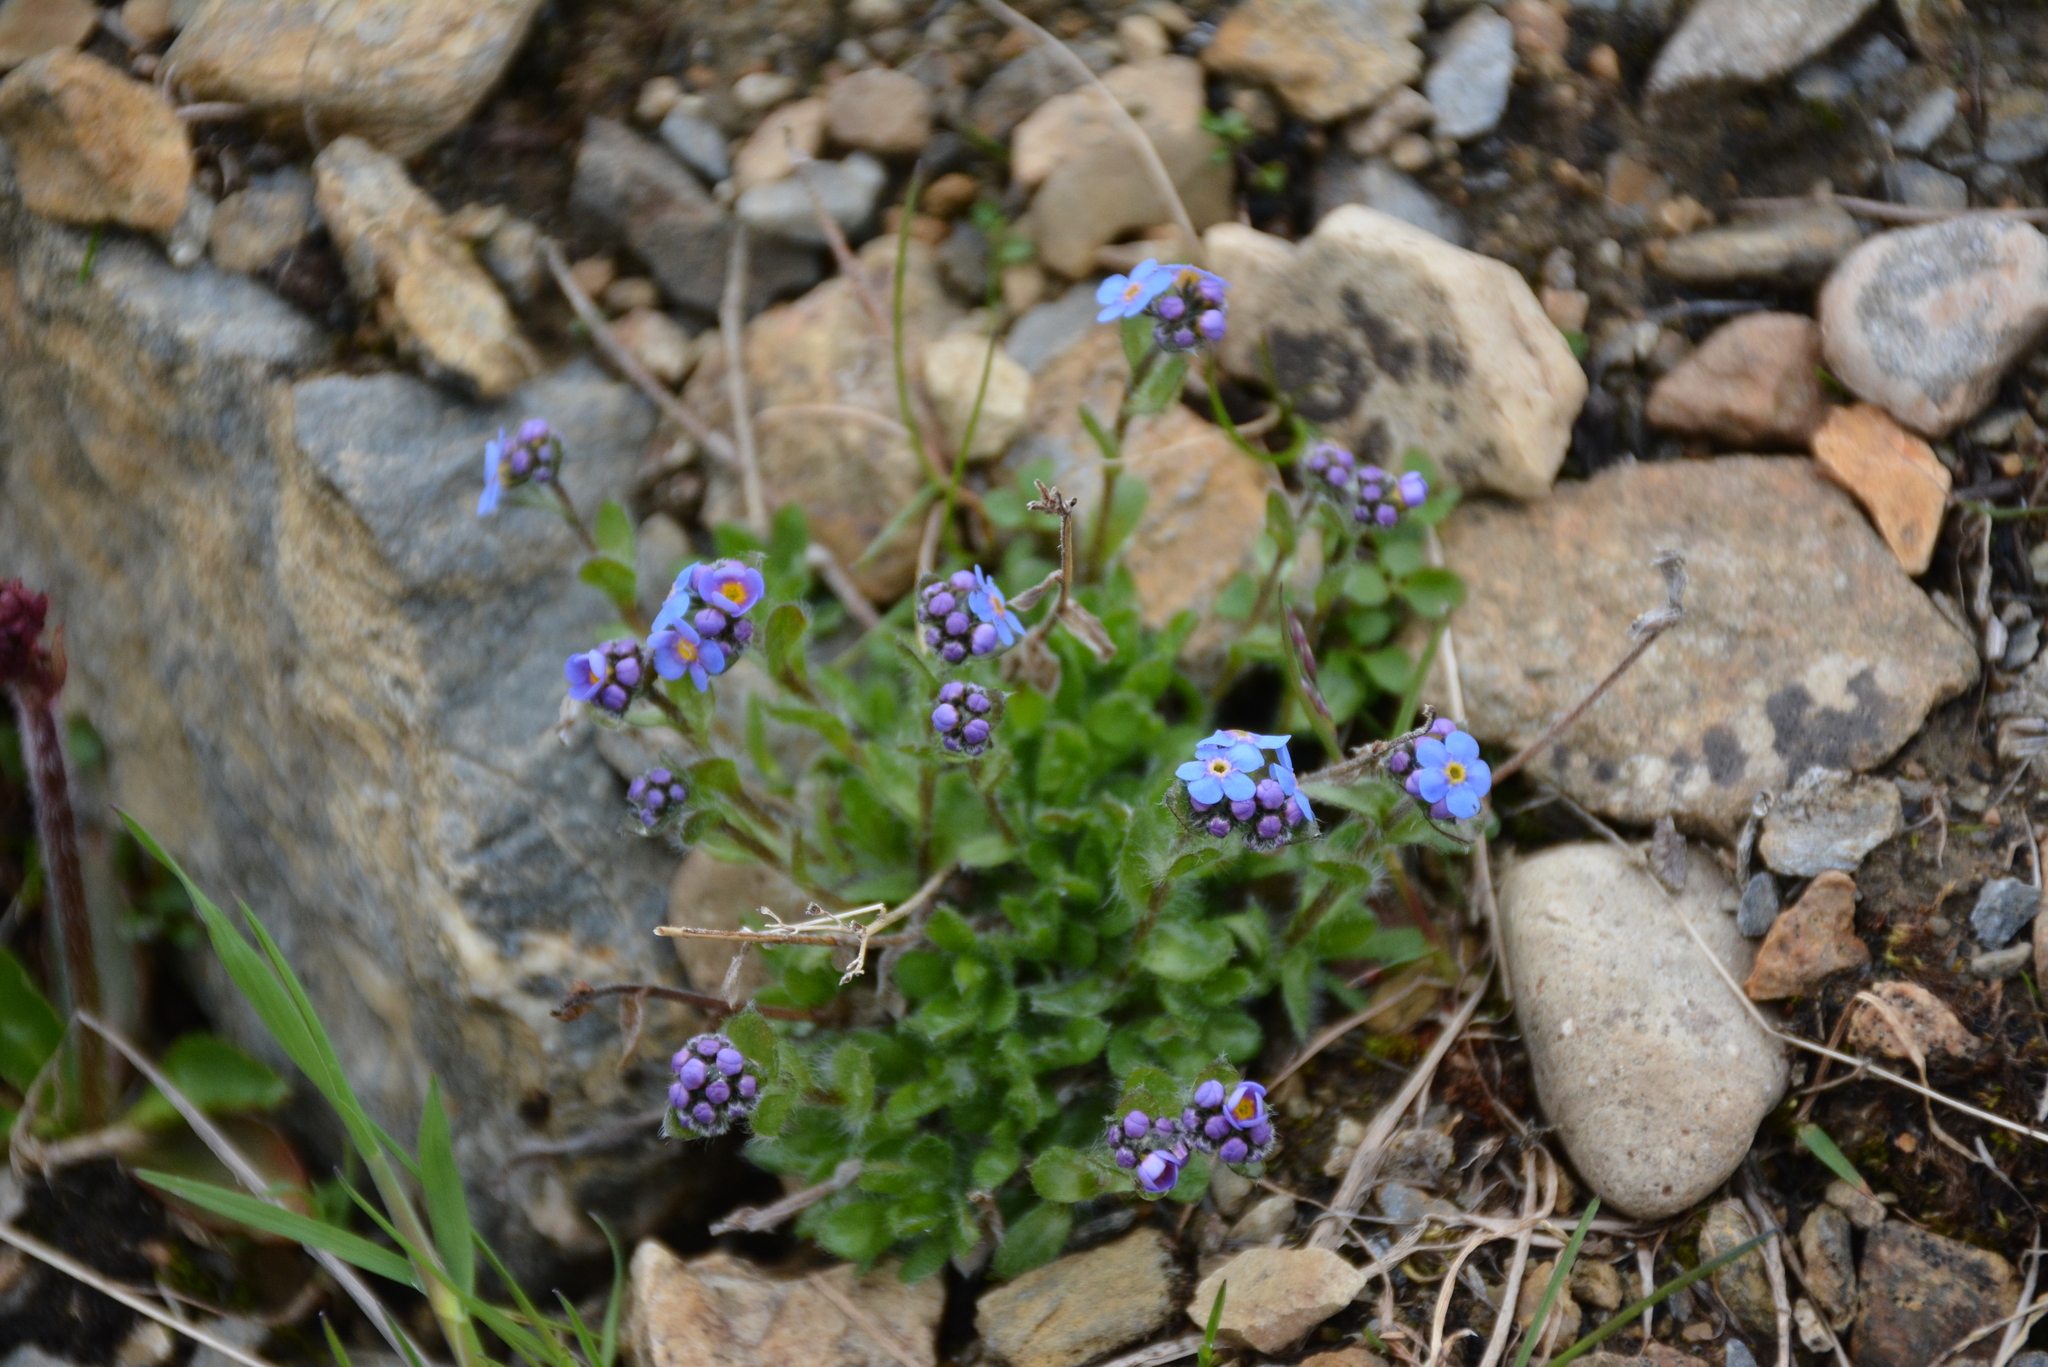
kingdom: Plantae
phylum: Tracheophyta
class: Magnoliopsida
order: Boraginales
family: Boraginaceae
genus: Eritrichium
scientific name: Eritrichium villosum
